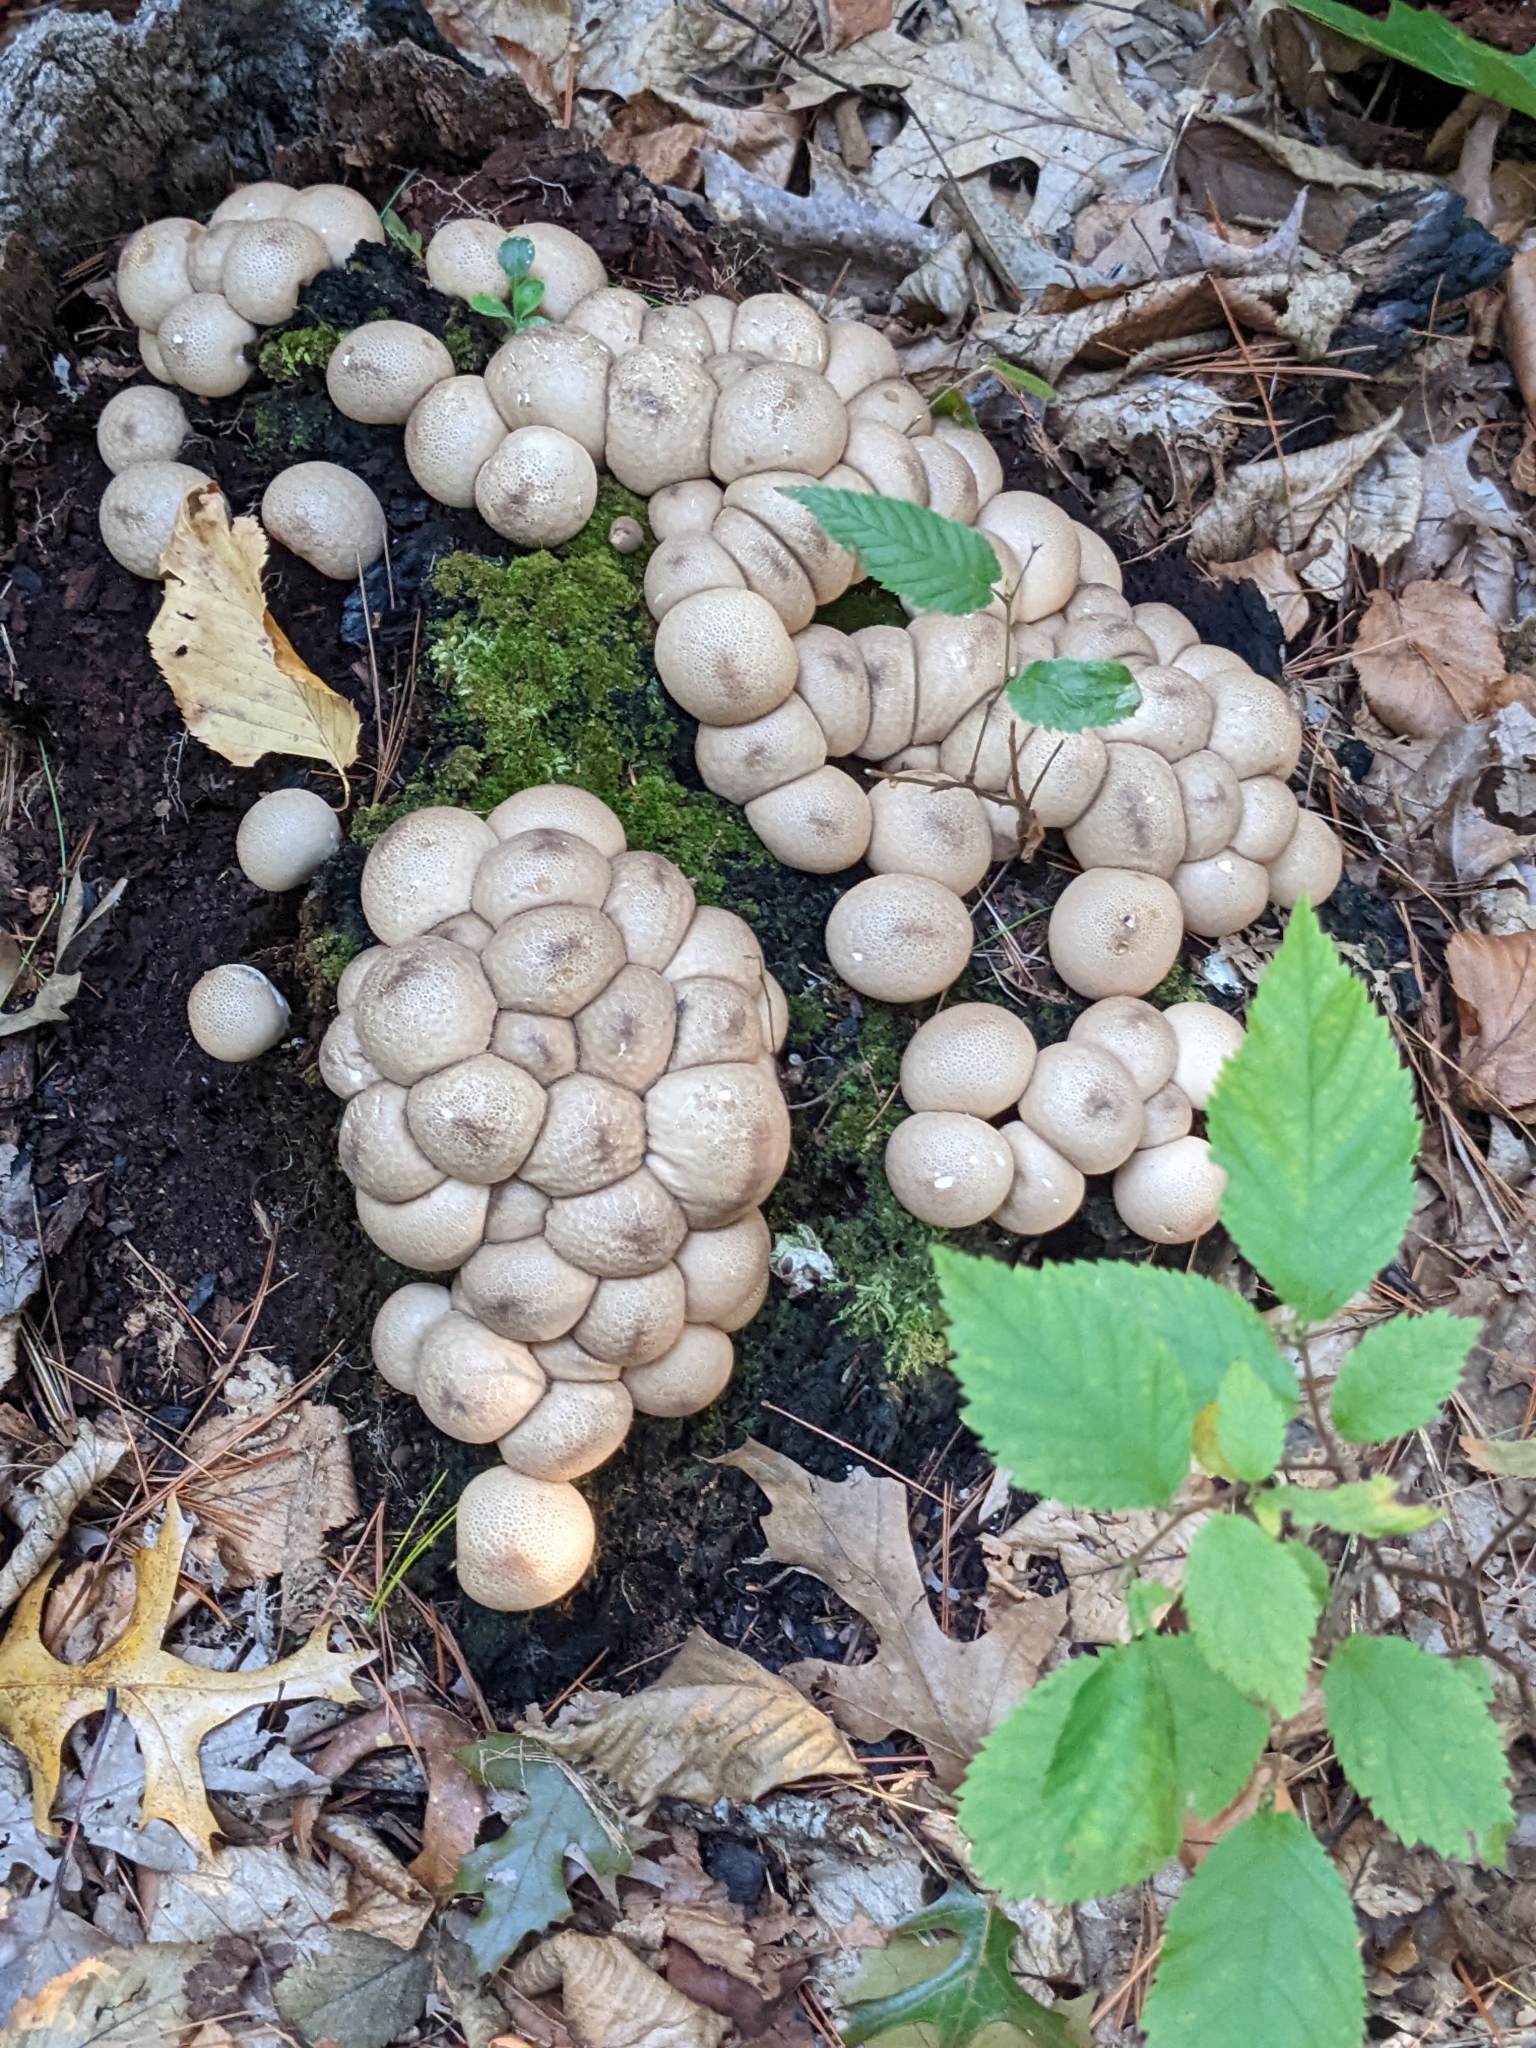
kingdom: Fungi
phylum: Basidiomycota
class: Agaricomycetes
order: Agaricales
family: Lycoperdaceae
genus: Apioperdon
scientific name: Apioperdon pyriforme
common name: Pear-shaped puffball
